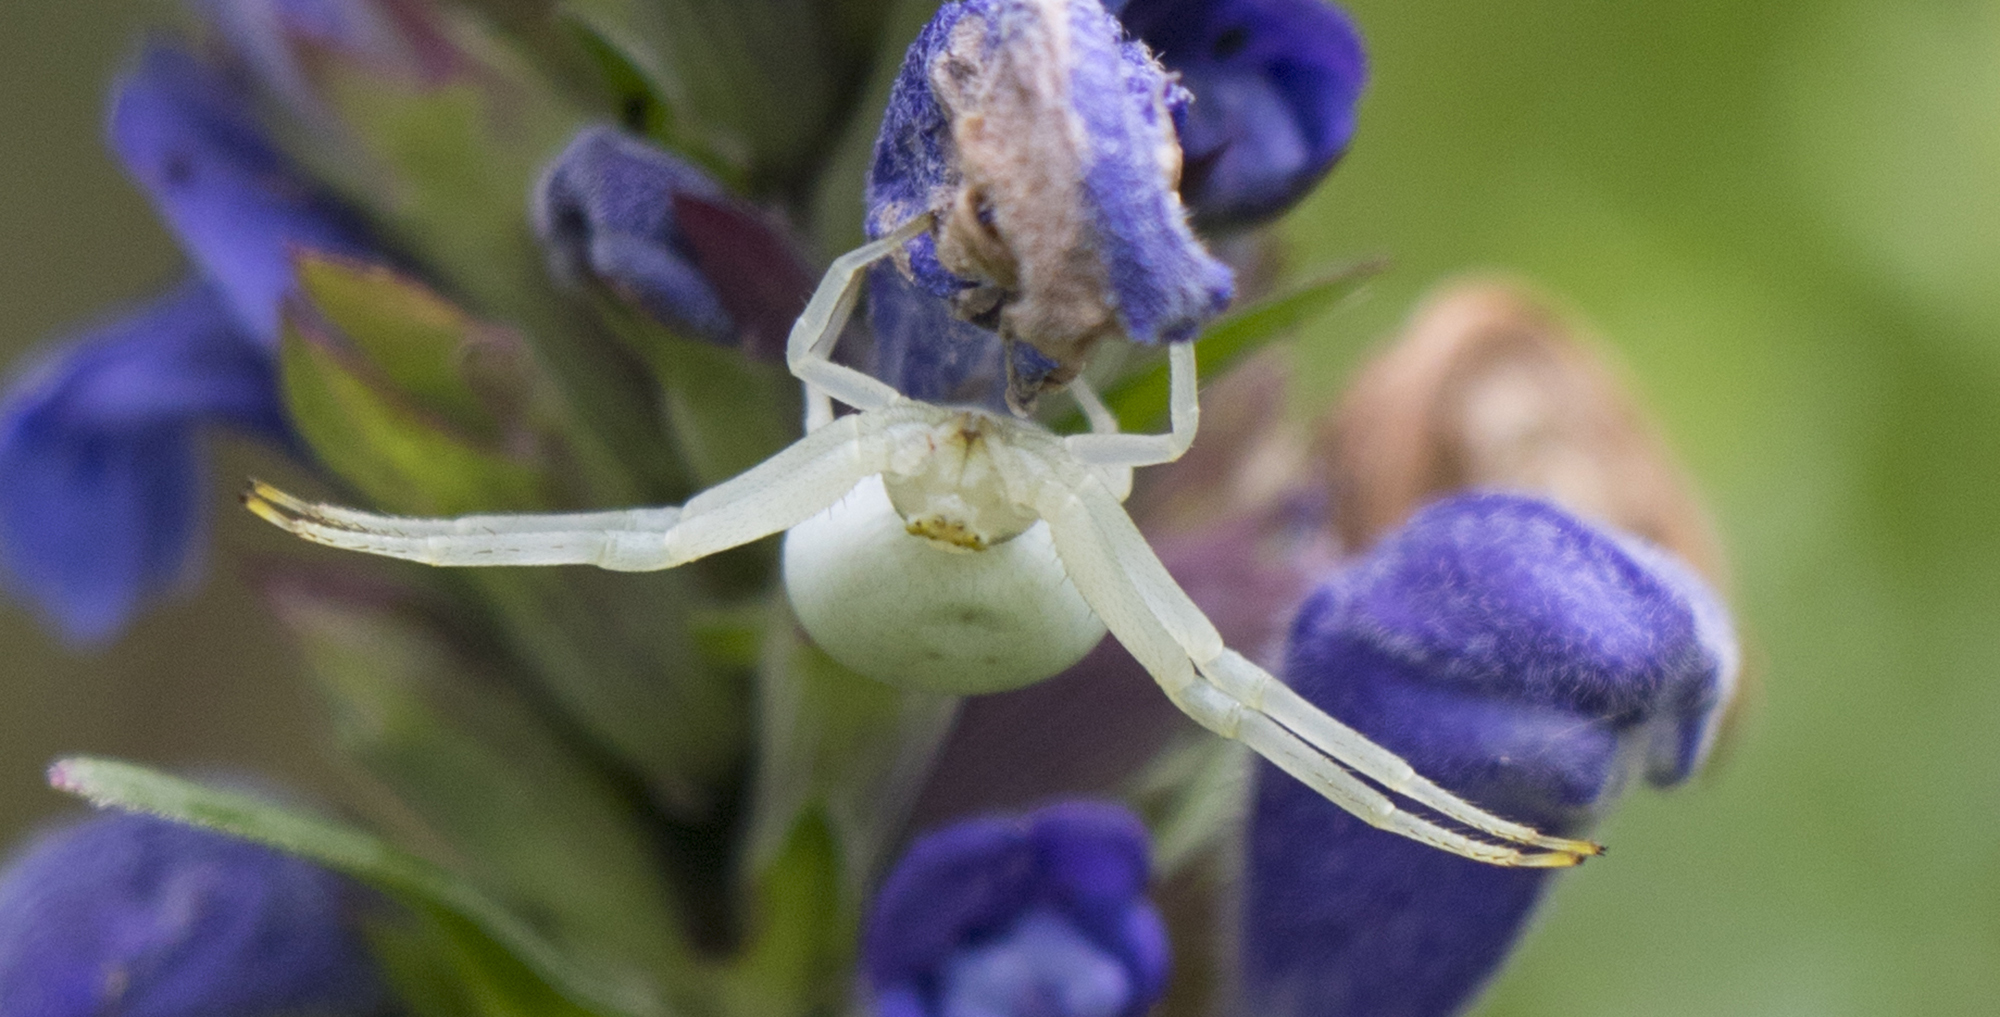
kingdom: Animalia
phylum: Arthropoda
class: Arachnida
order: Araneae
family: Thomisidae
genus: Misumena
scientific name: Misumena vatia
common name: Goldenrod crab spider
